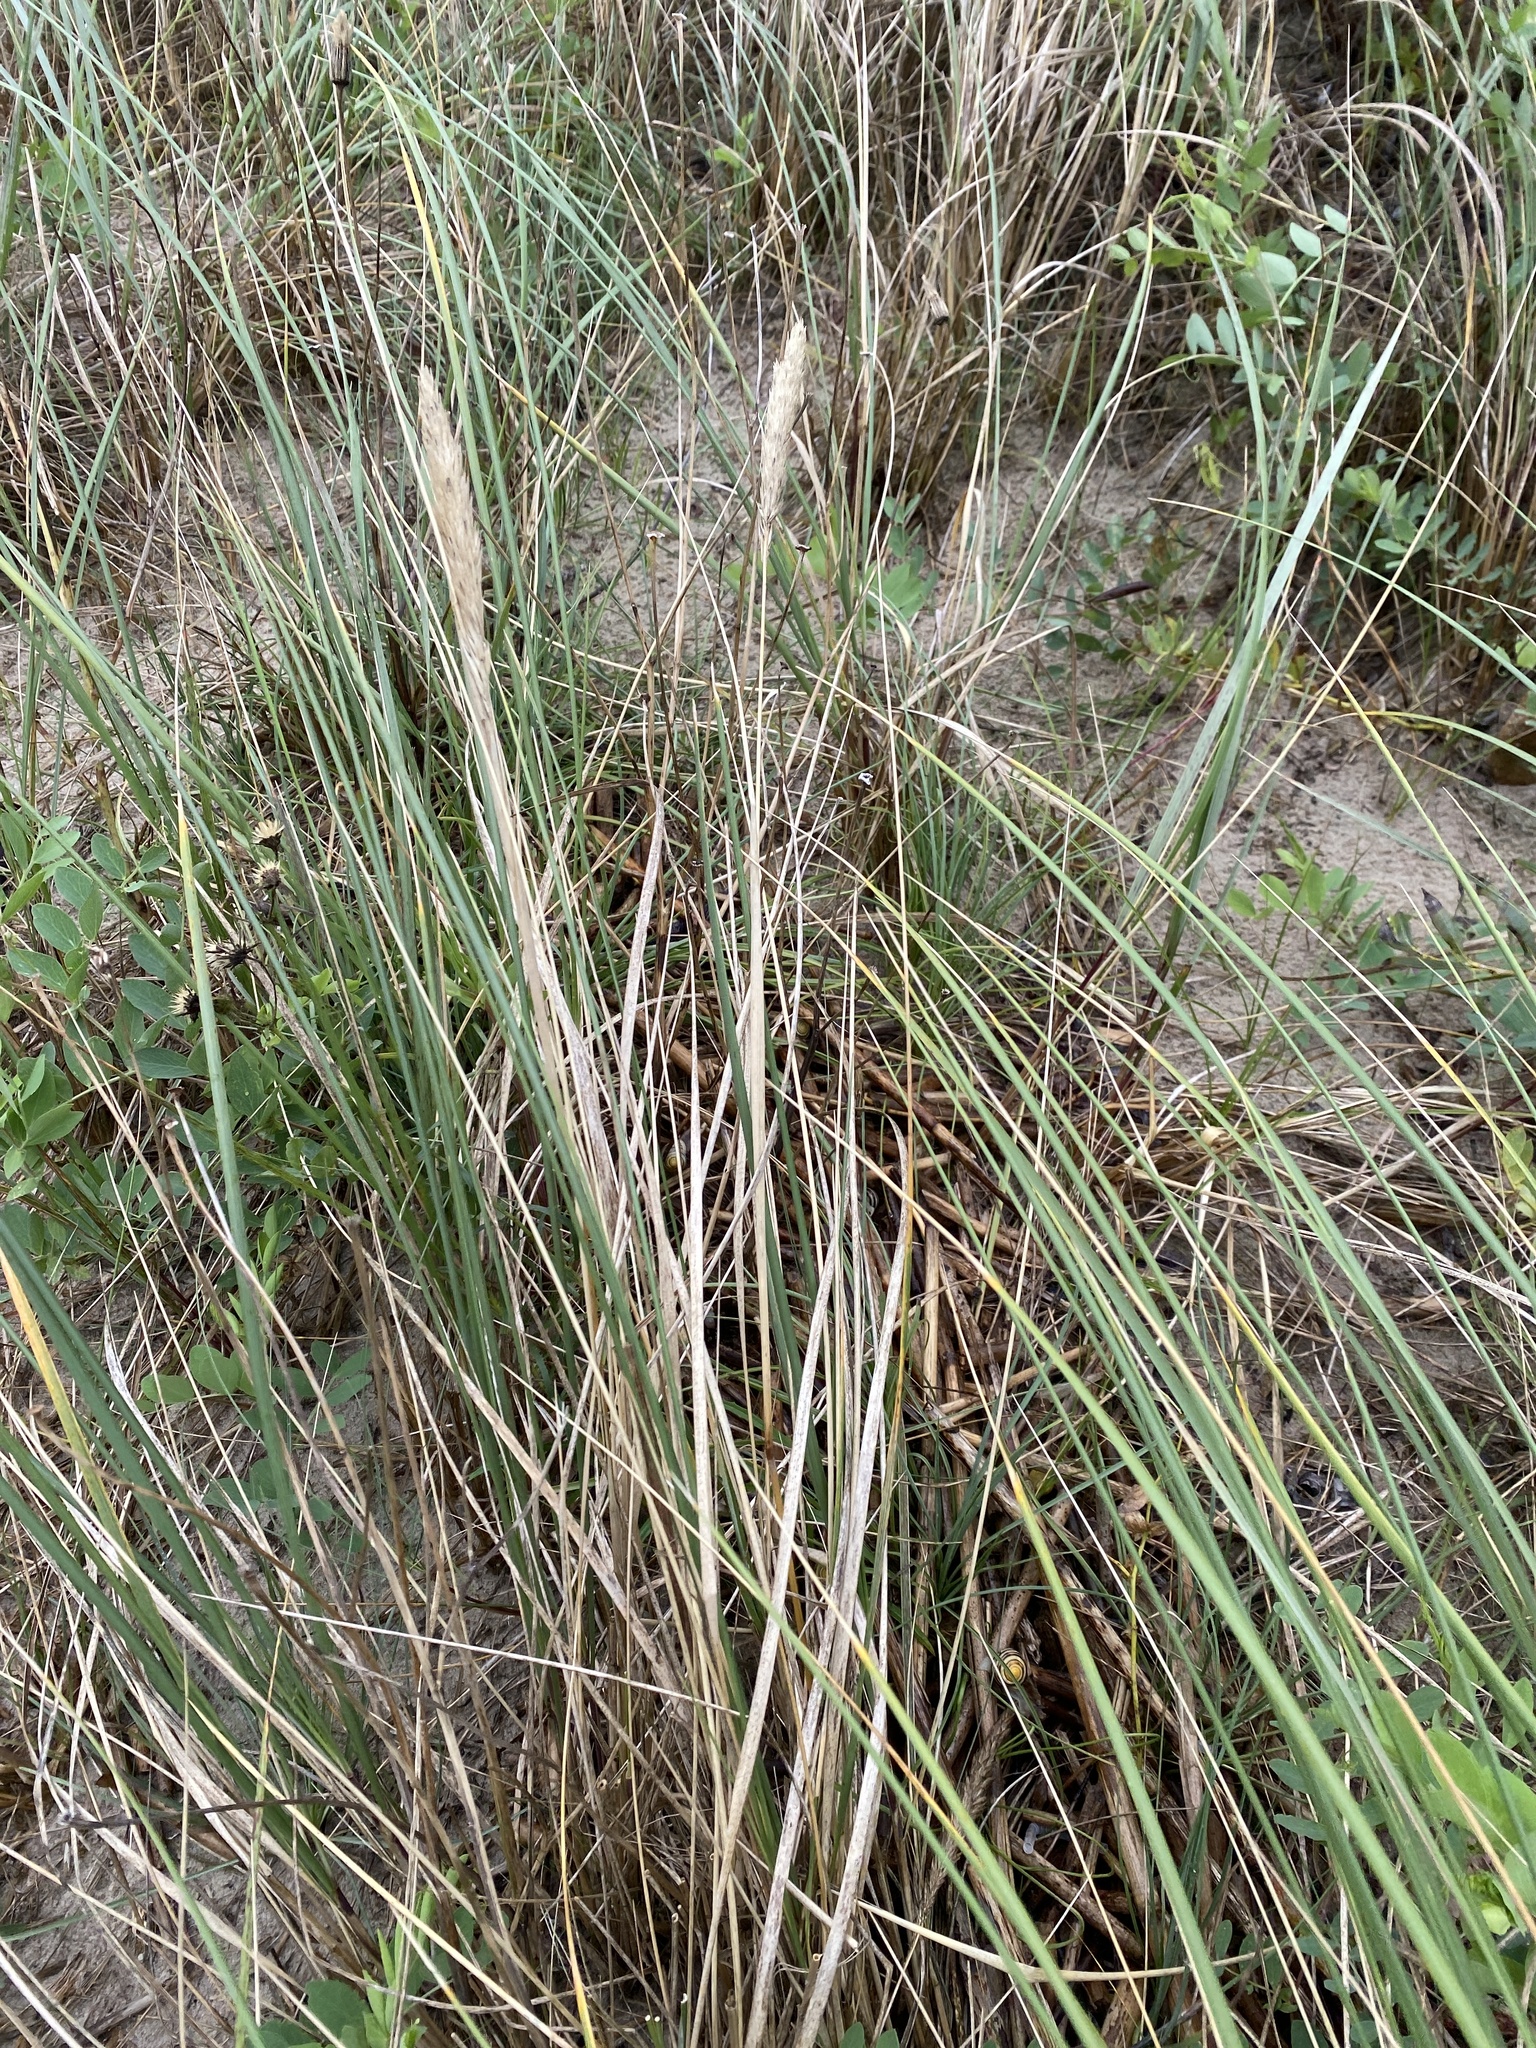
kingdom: Plantae
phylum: Tracheophyta
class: Liliopsida
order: Poales
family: Poaceae
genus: Calamagrostis
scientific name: Calamagrostis arenaria
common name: European beachgrass
